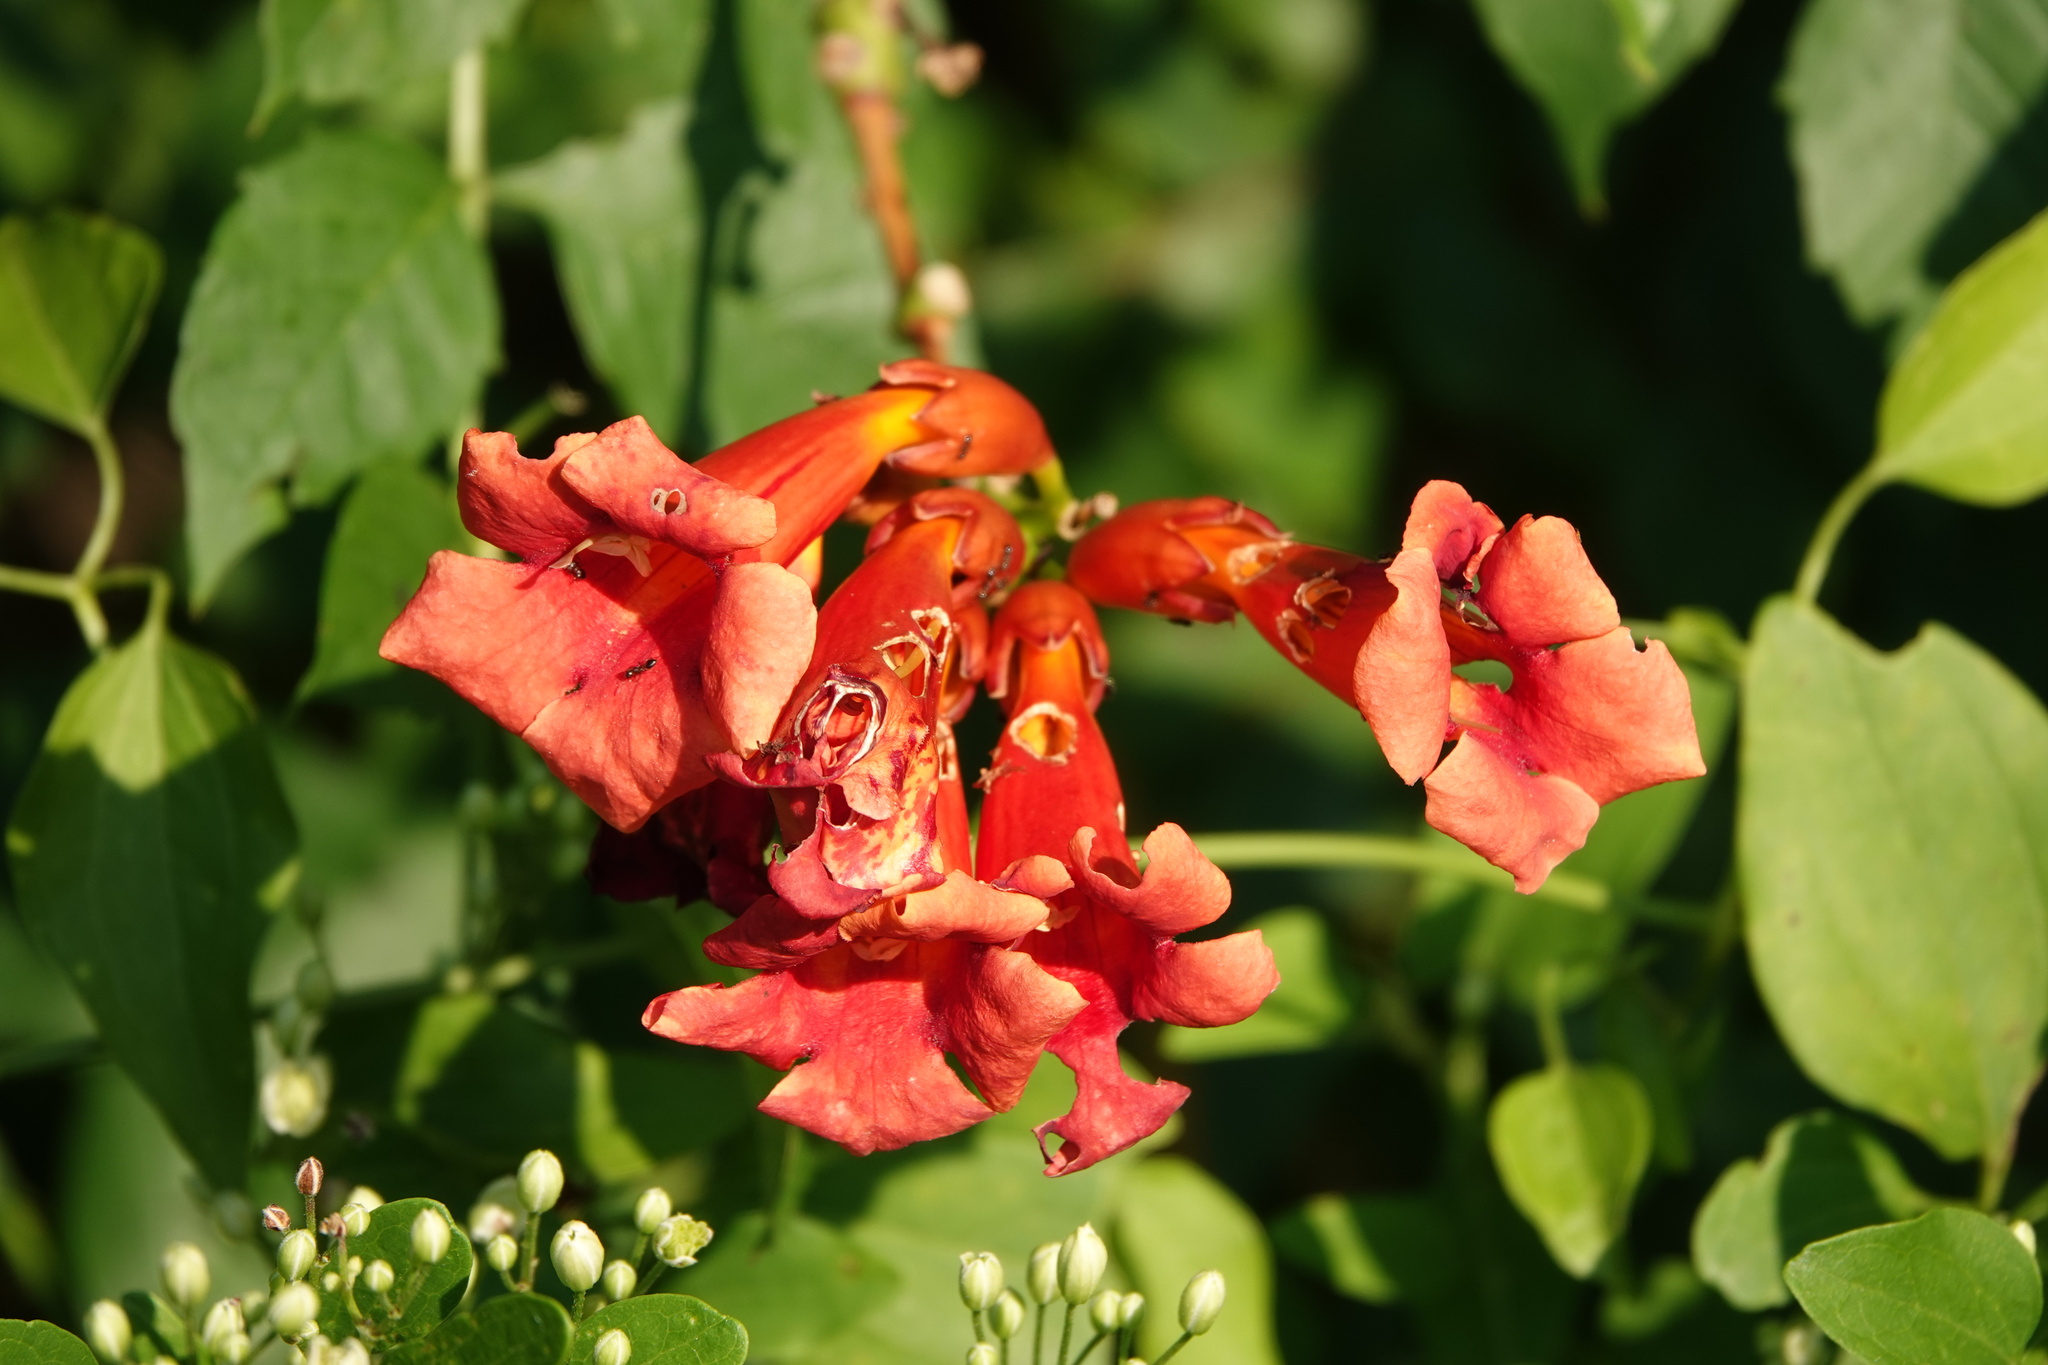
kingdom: Plantae
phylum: Tracheophyta
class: Magnoliopsida
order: Lamiales
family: Bignoniaceae
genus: Campsis
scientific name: Campsis radicans
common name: Trumpet-creeper
